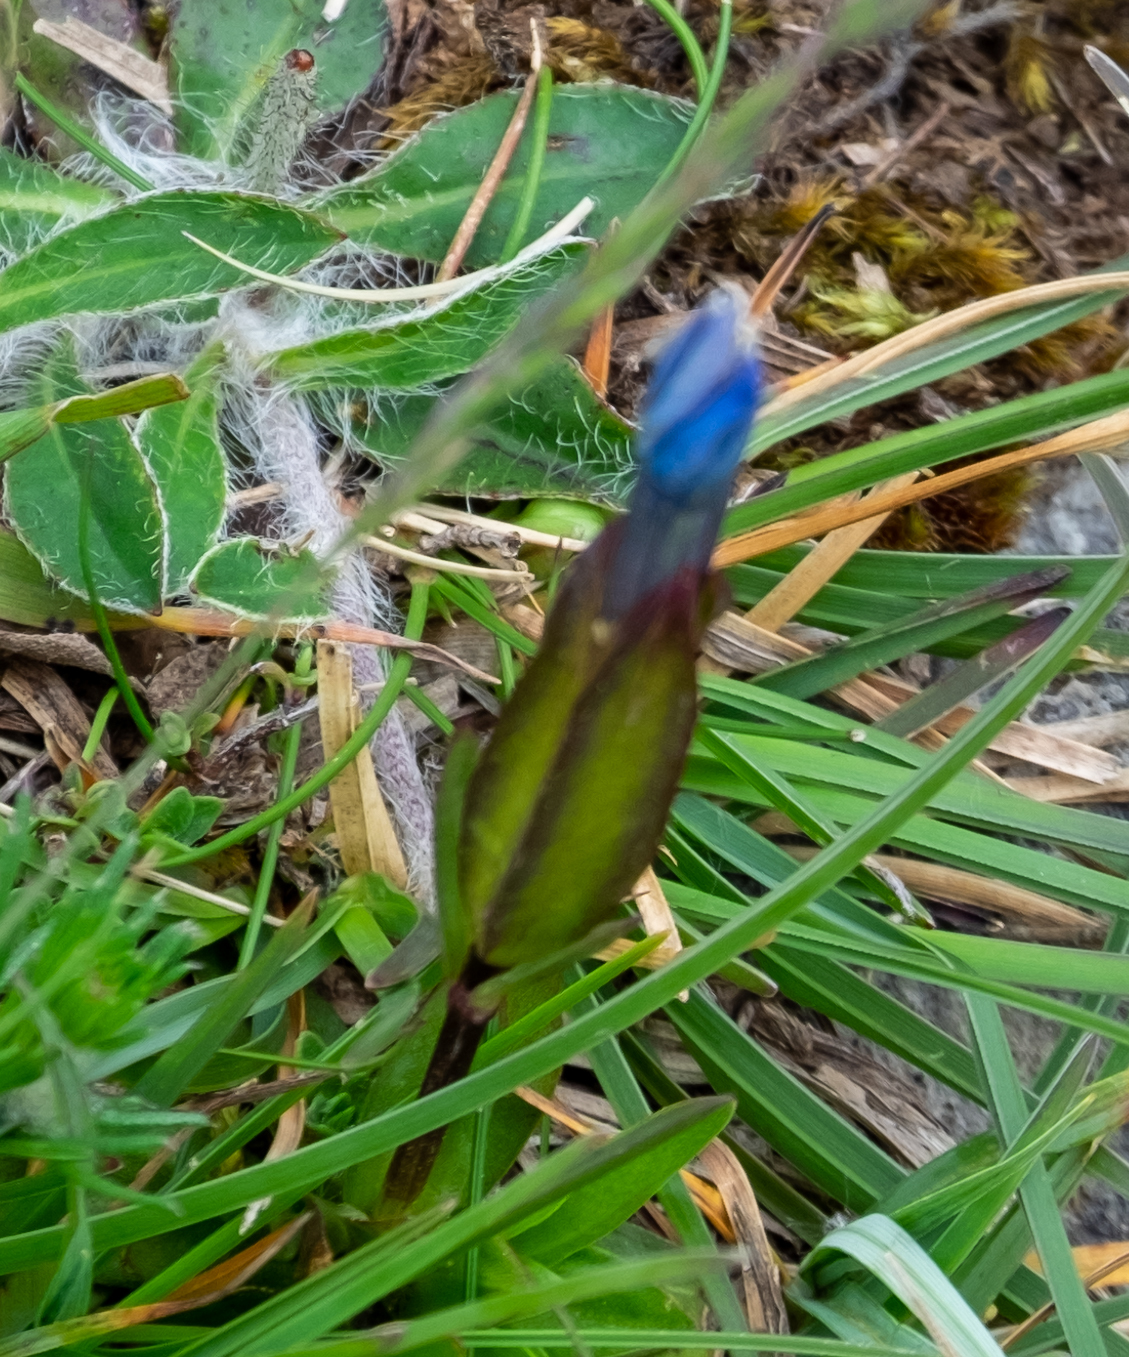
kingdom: Plantae
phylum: Tracheophyta
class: Magnoliopsida
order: Gentianales
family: Gentianaceae
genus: Gentiana
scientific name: Gentiana verna
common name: Spring gentian
